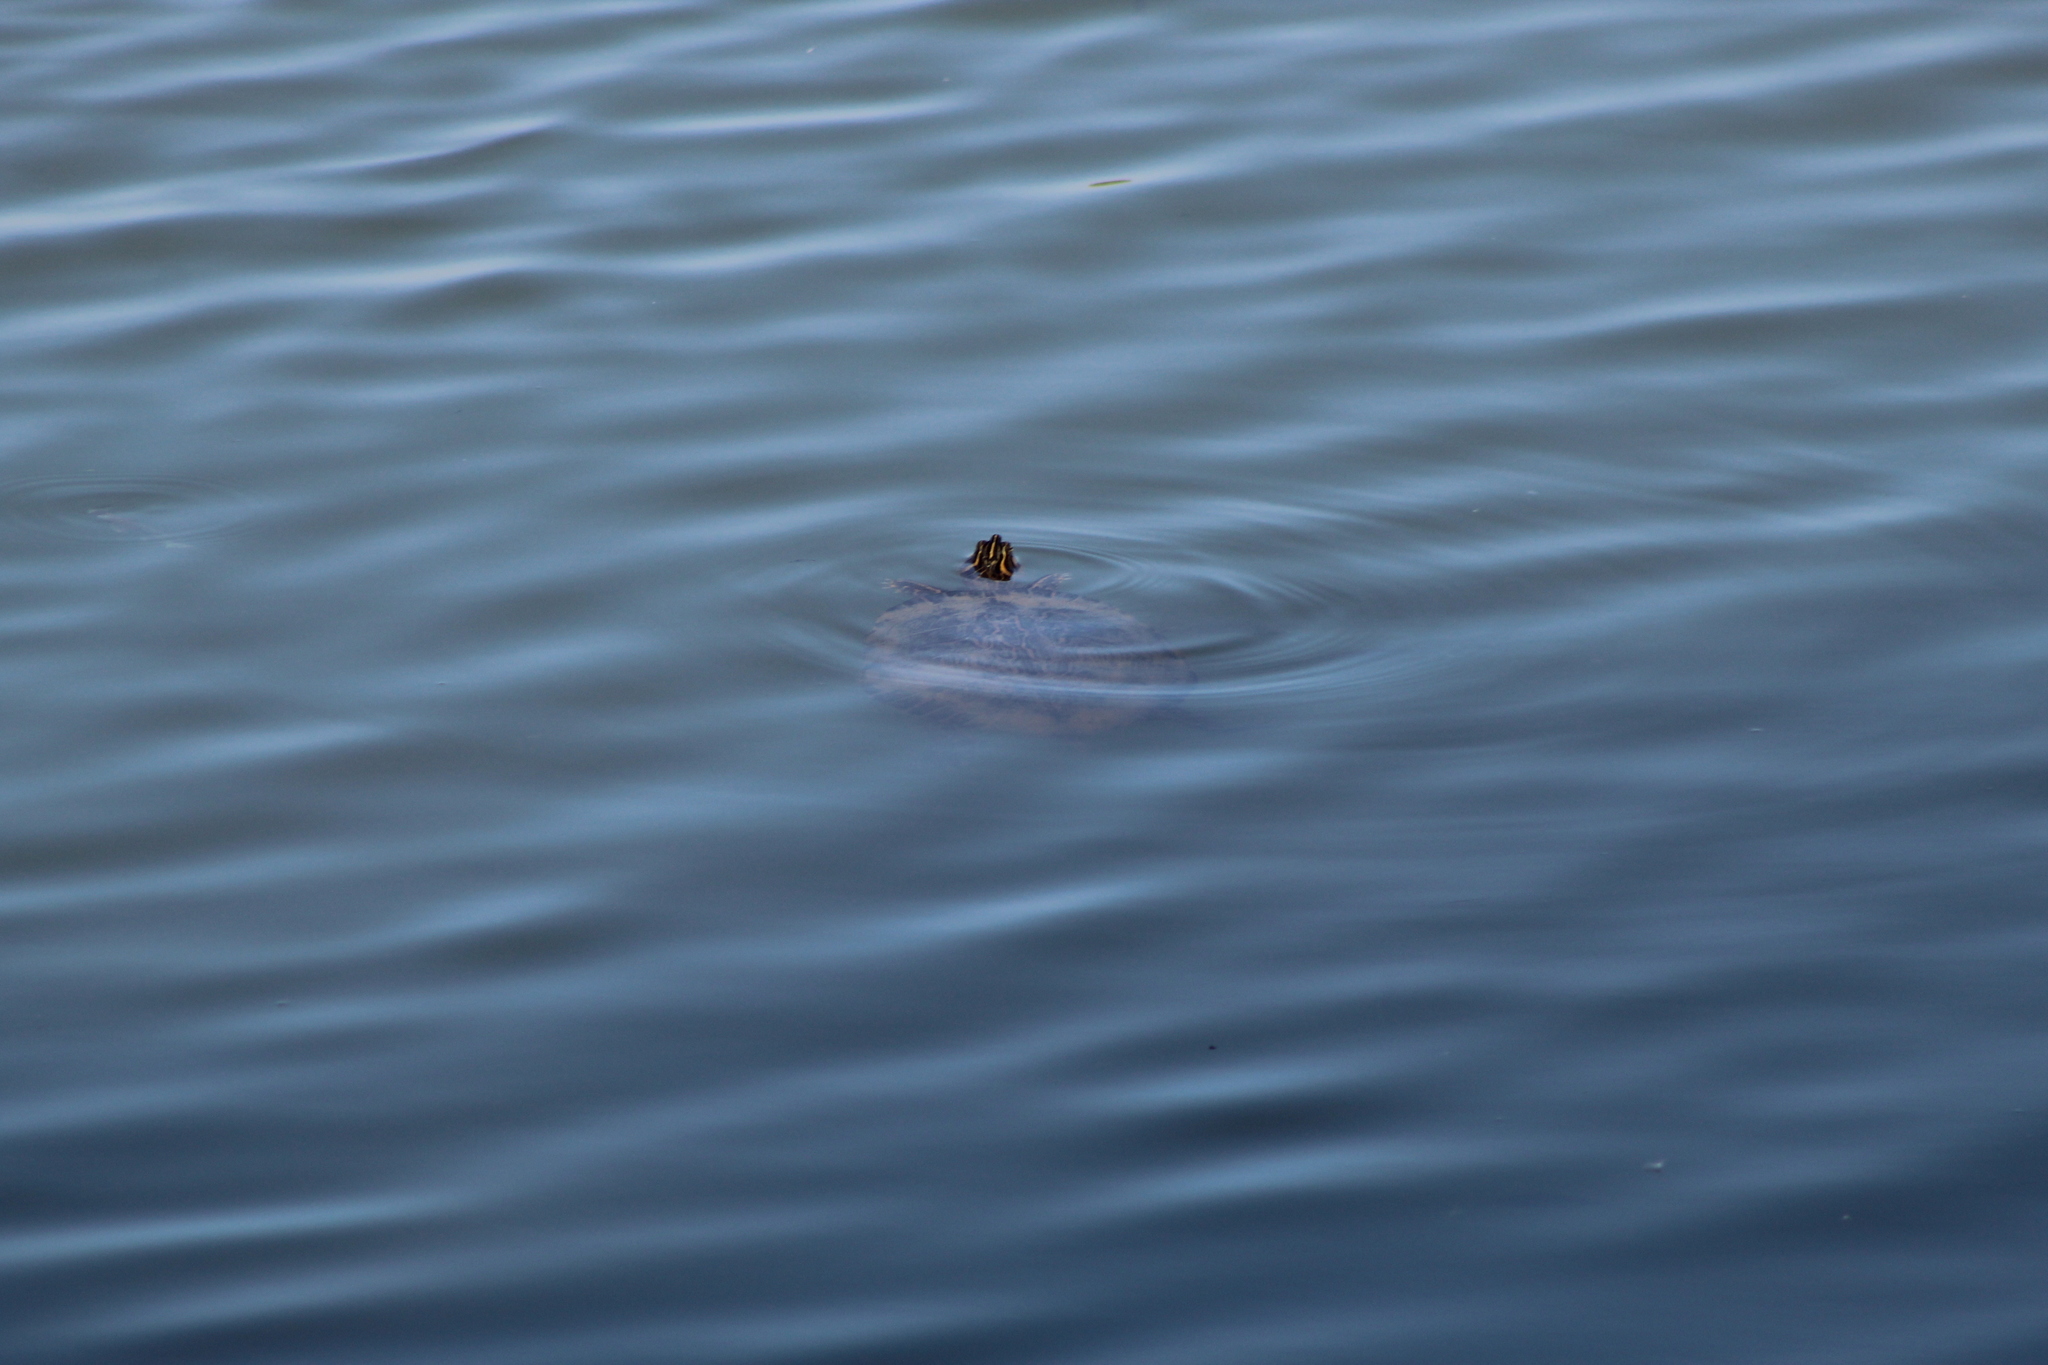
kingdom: Animalia
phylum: Chordata
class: Testudines
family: Emydidae
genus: Pseudemys
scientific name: Pseudemys concinna
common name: Eastern river cooter
